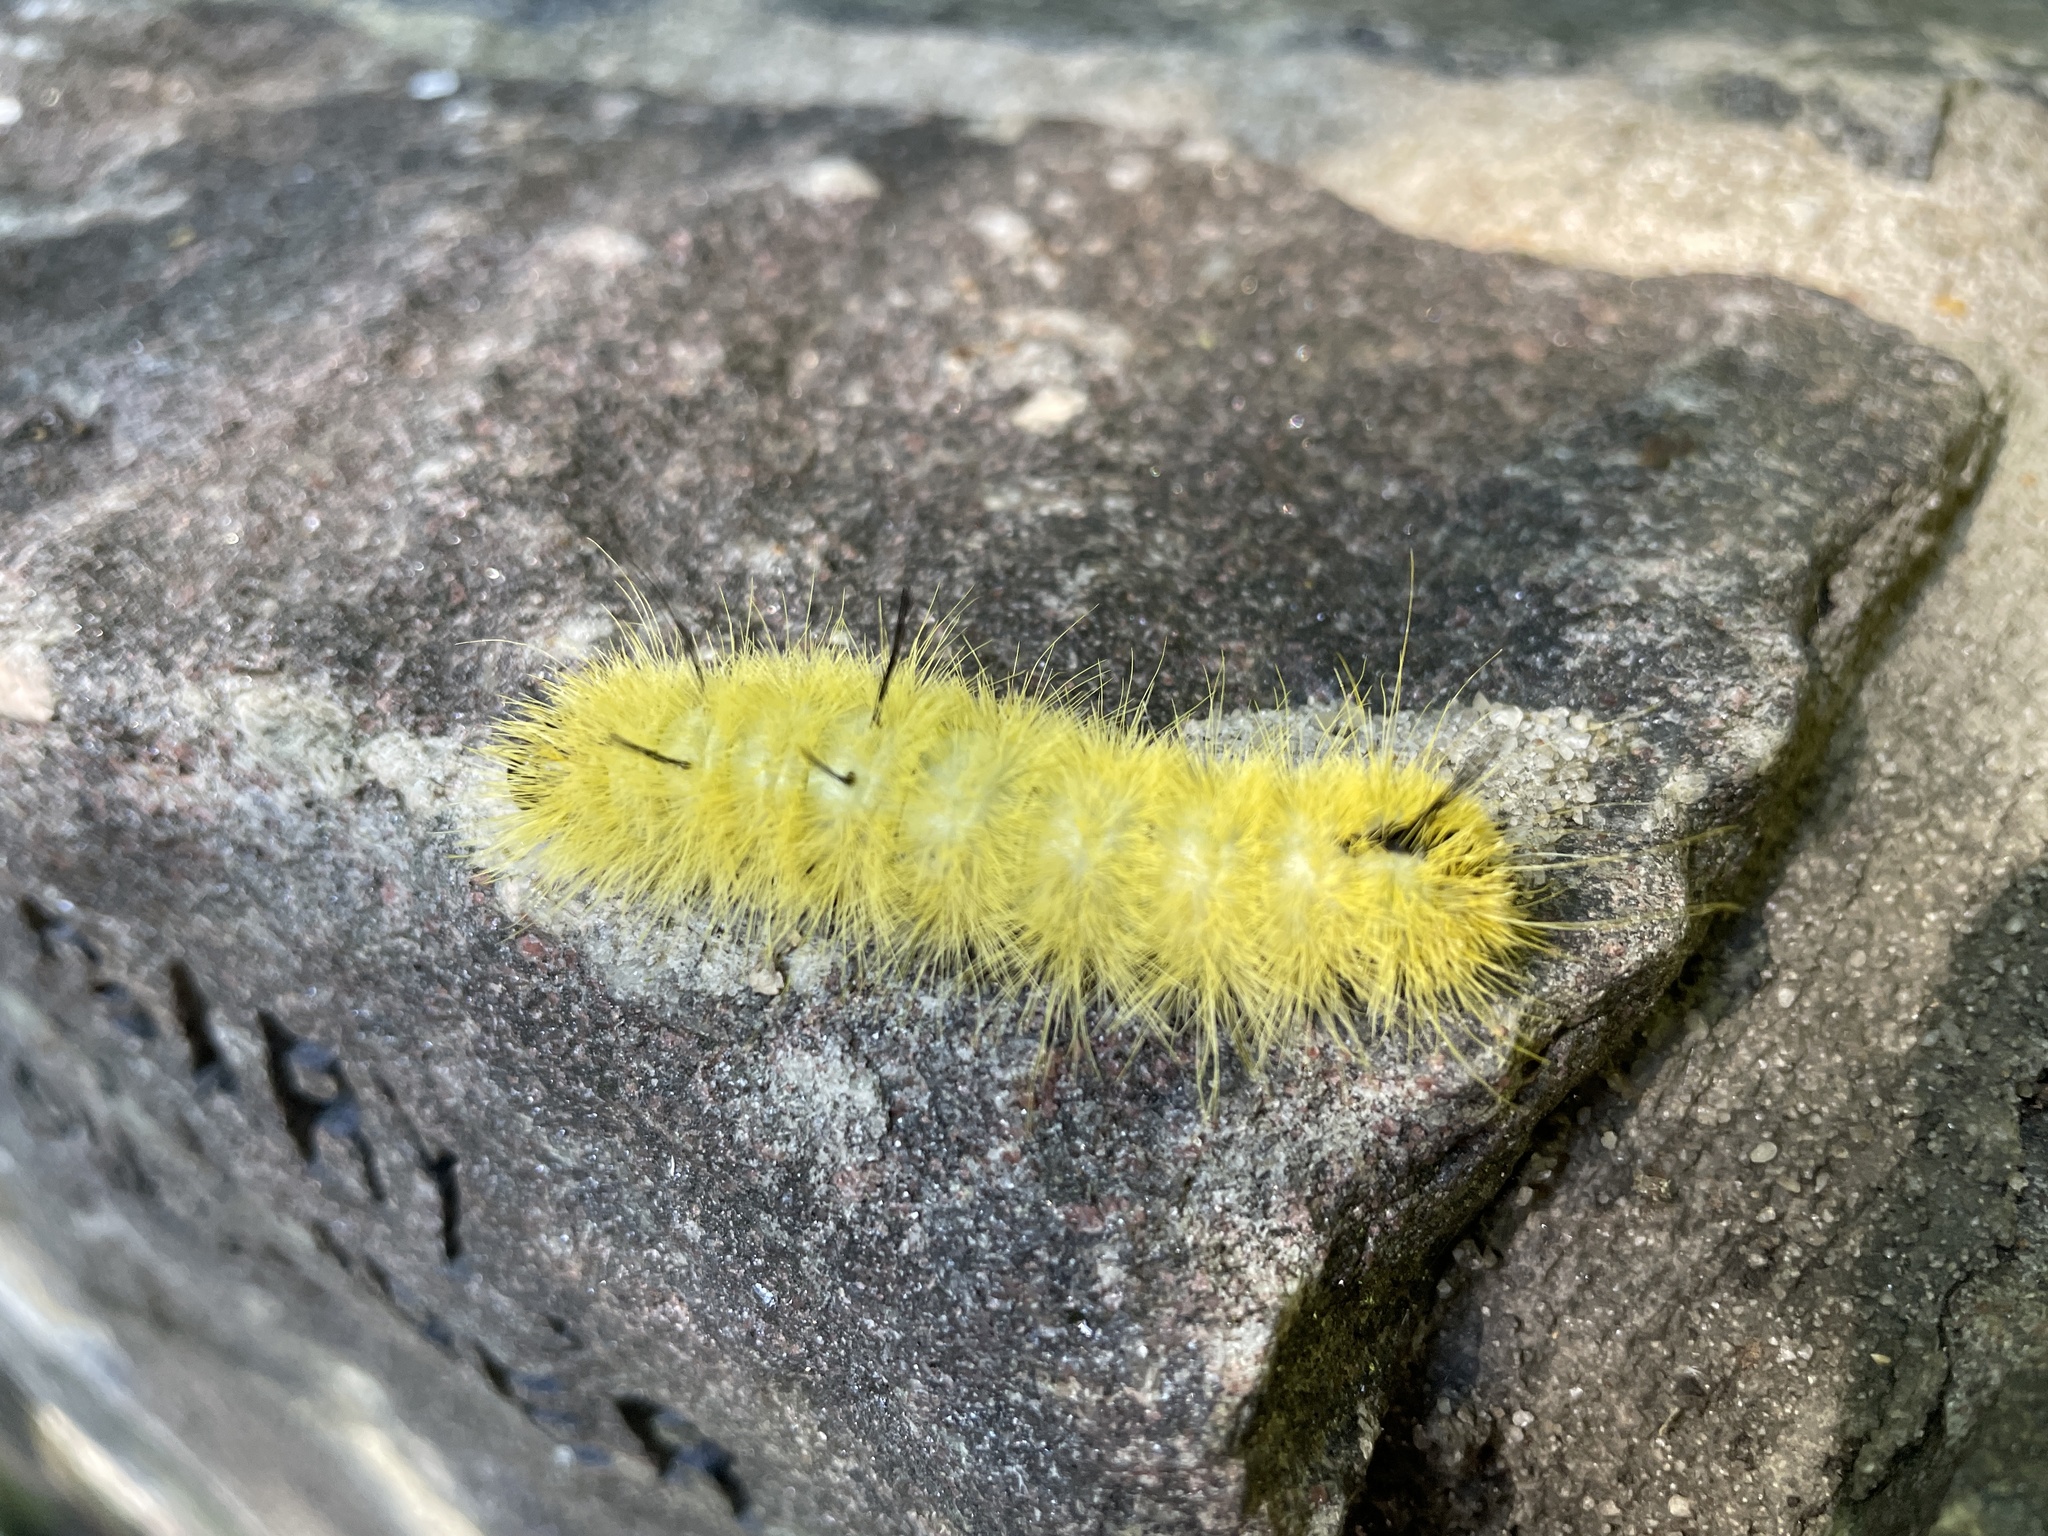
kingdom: Animalia
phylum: Arthropoda
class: Insecta
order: Lepidoptera
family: Noctuidae
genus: Acronicta
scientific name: Acronicta americana
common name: American dagger
